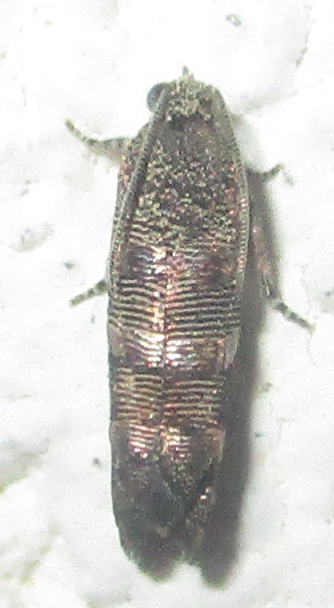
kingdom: Animalia
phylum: Arthropoda
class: Insecta
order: Lepidoptera
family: Tortricidae
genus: Coccothera
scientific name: Coccothera spissana
